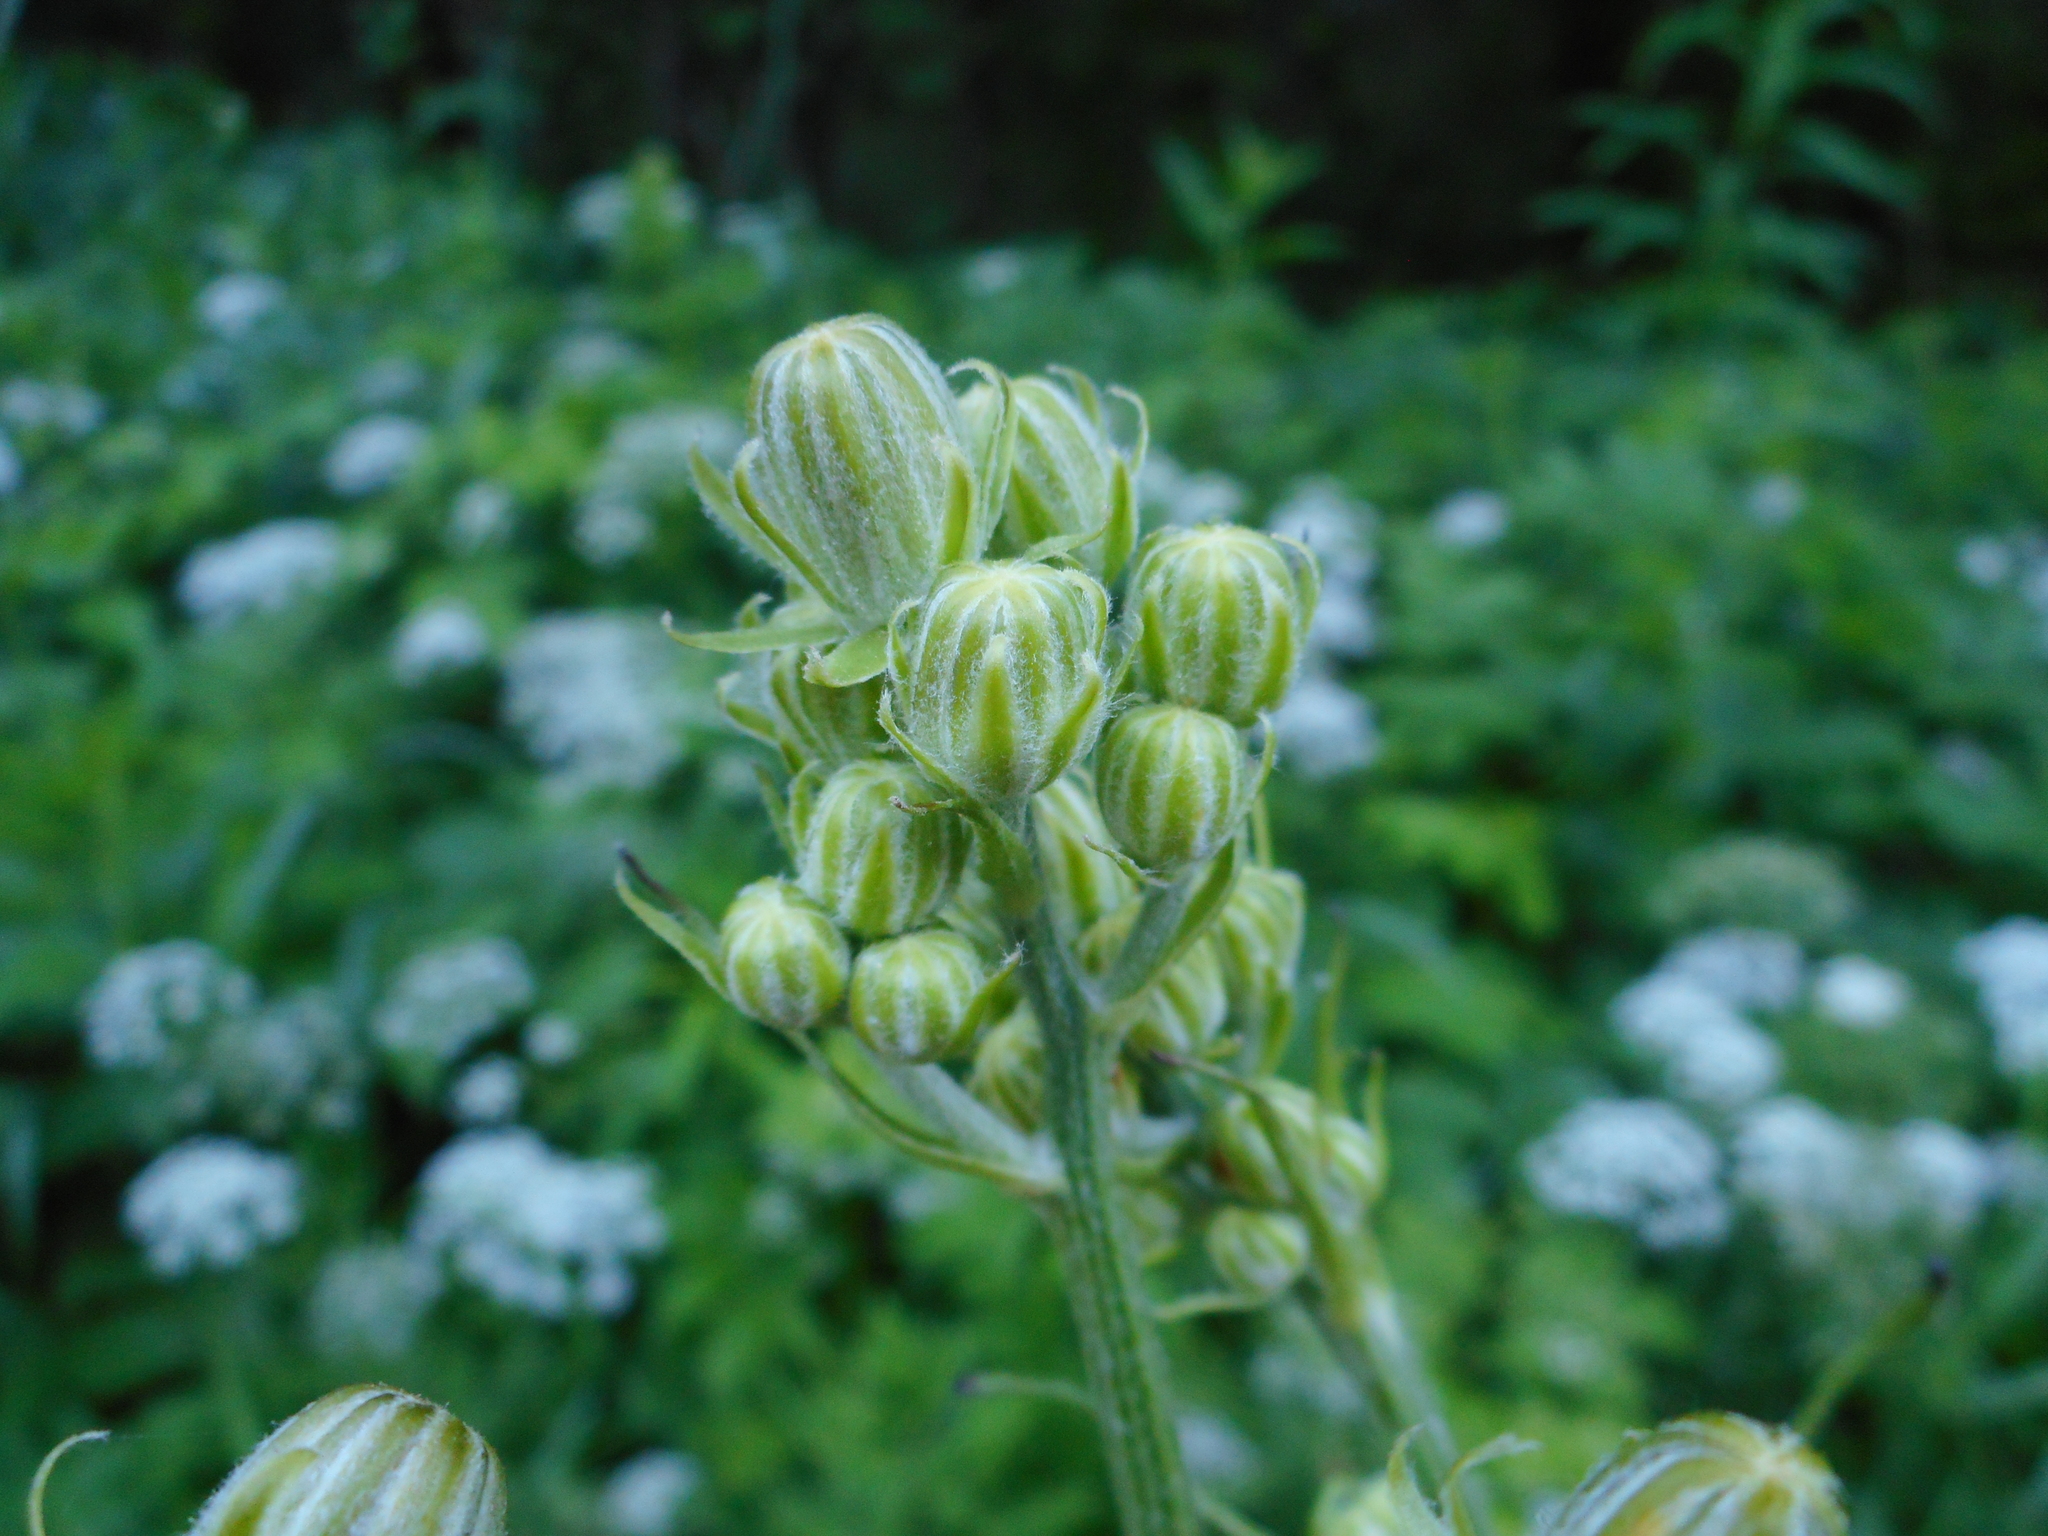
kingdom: Plantae
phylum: Tracheophyta
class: Magnoliopsida
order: Asterales
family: Asteraceae
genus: Crepis
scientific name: Crepis biennis
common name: Rough hawk's-beard
